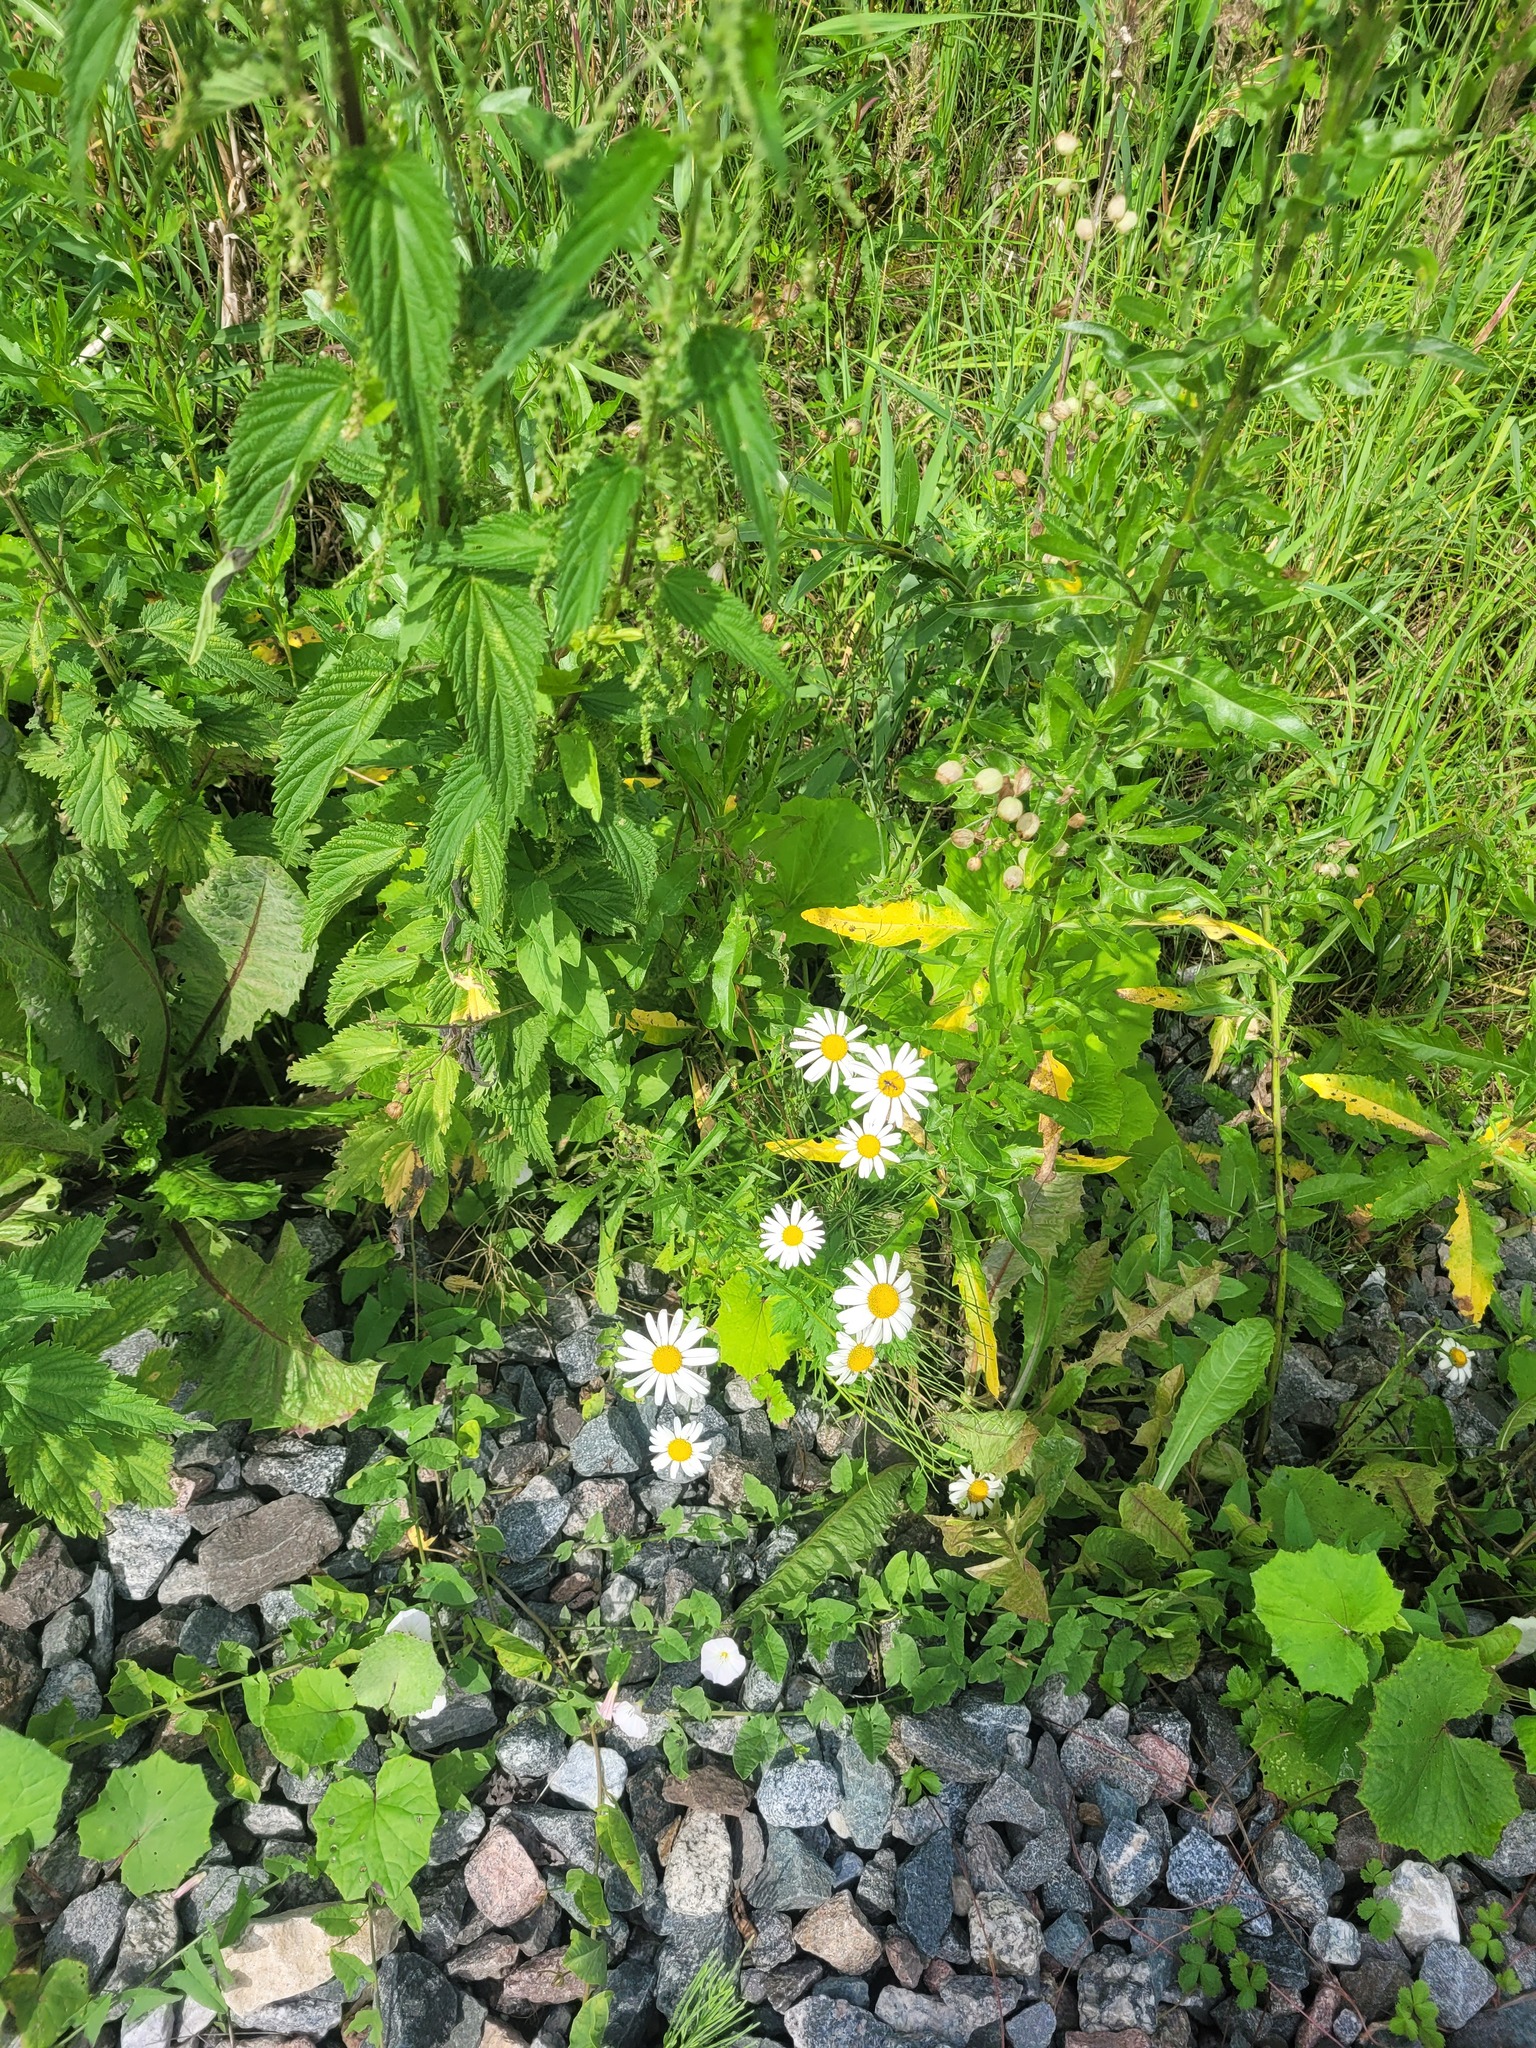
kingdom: Plantae
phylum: Tracheophyta
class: Magnoliopsida
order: Asterales
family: Asteraceae
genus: Leucanthemum
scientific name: Leucanthemum vulgare
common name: Oxeye daisy
